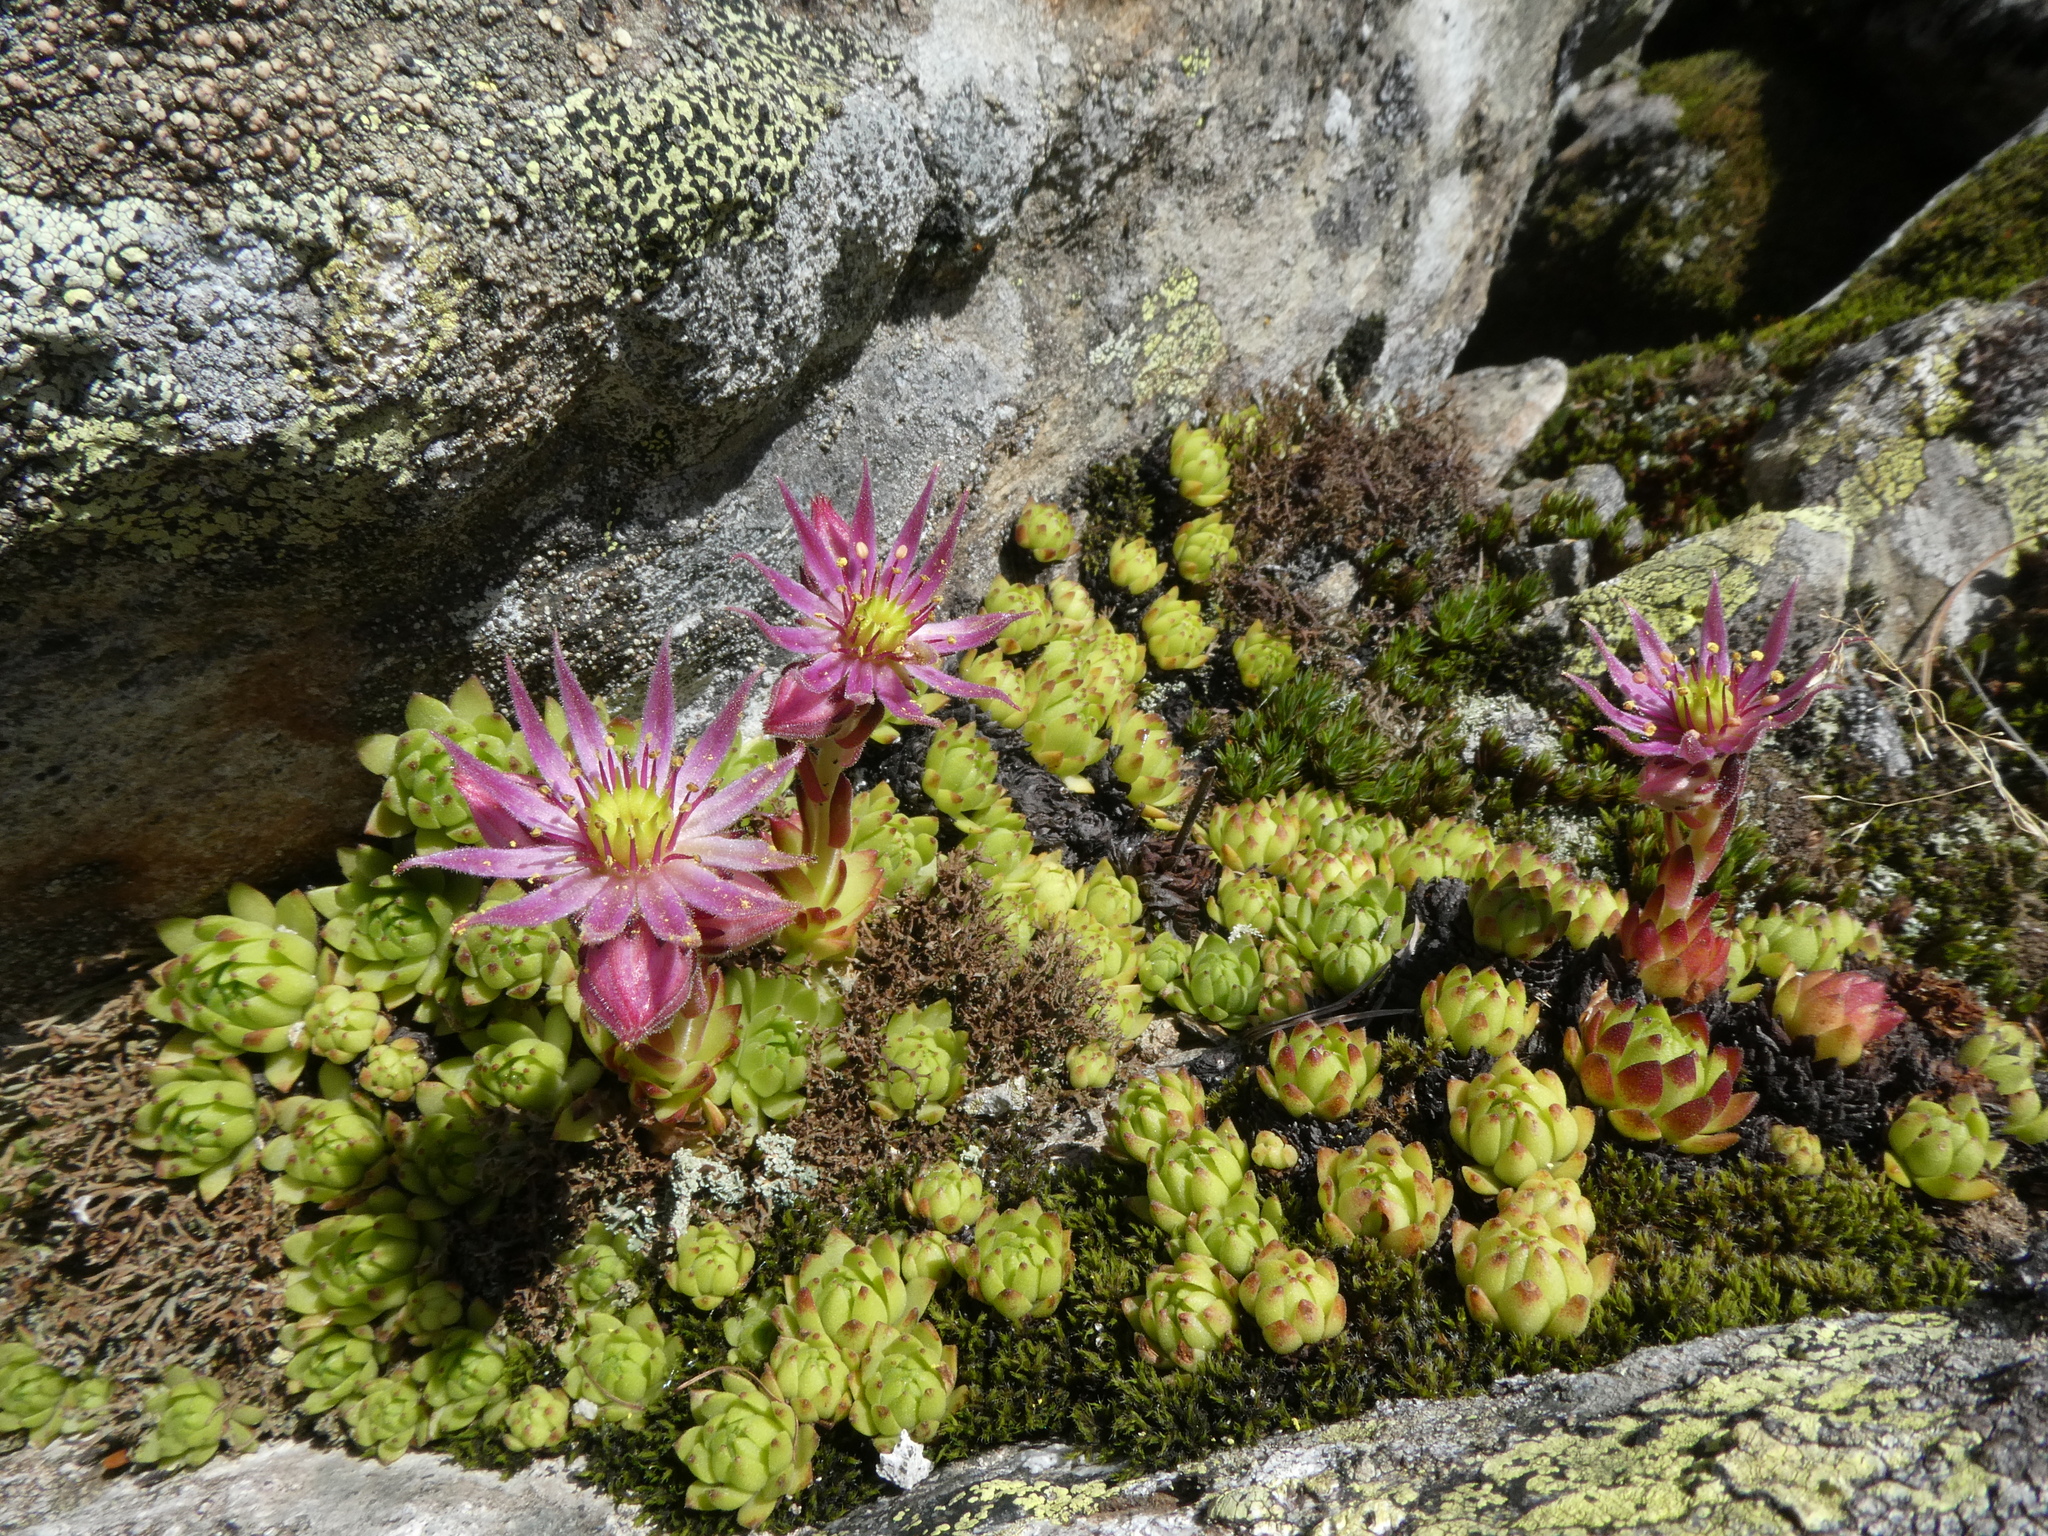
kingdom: Plantae
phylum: Tracheophyta
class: Magnoliopsida
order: Saxifragales
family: Crassulaceae
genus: Sempervivum
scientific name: Sempervivum montanum
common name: Mountain house-leek
